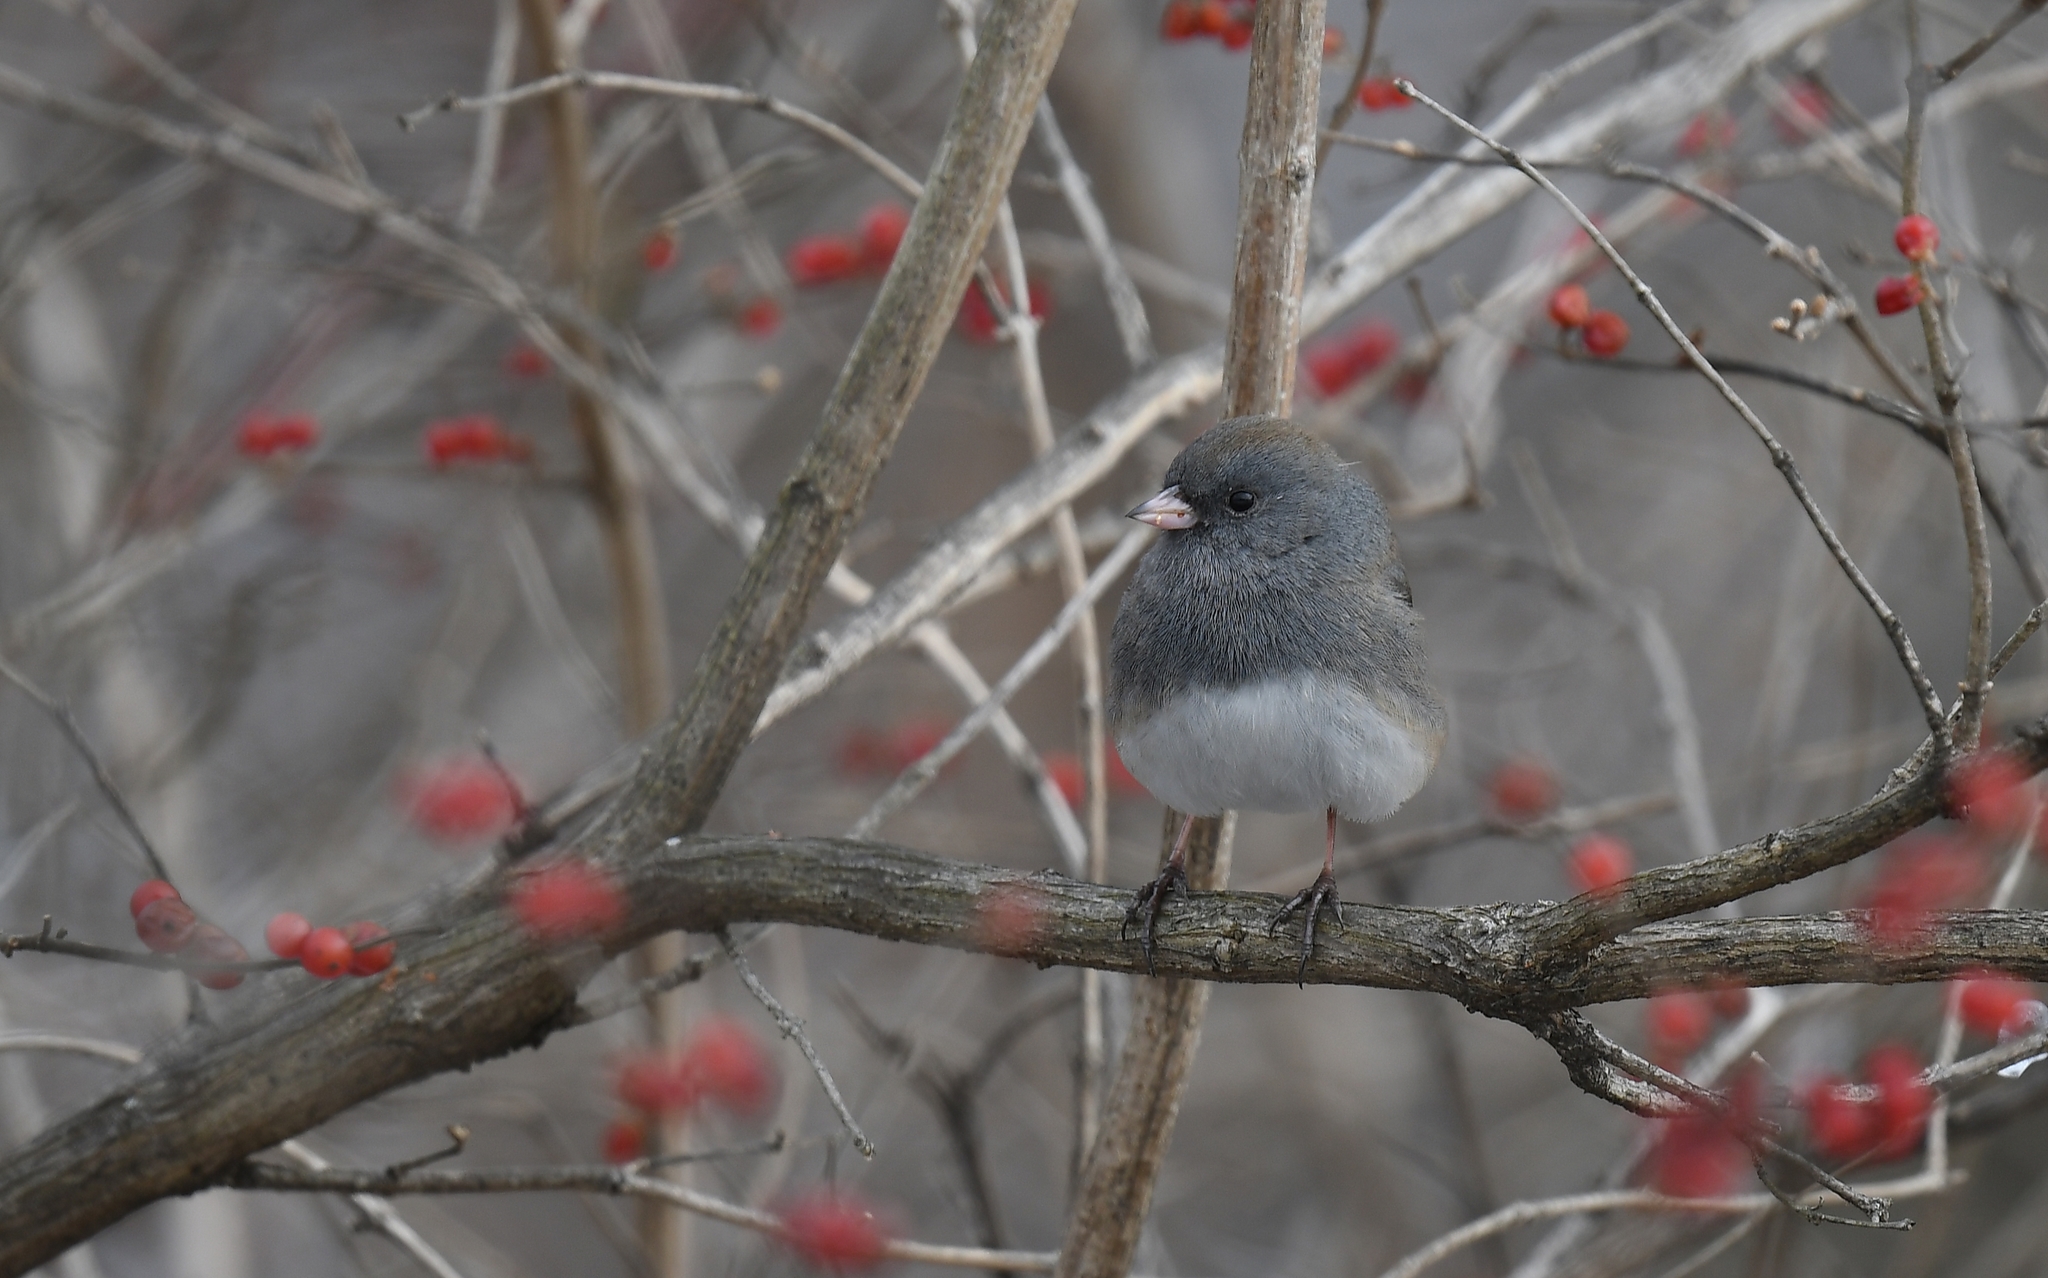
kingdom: Animalia
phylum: Chordata
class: Aves
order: Passeriformes
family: Passerellidae
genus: Junco
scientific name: Junco hyemalis
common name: Dark-eyed junco
